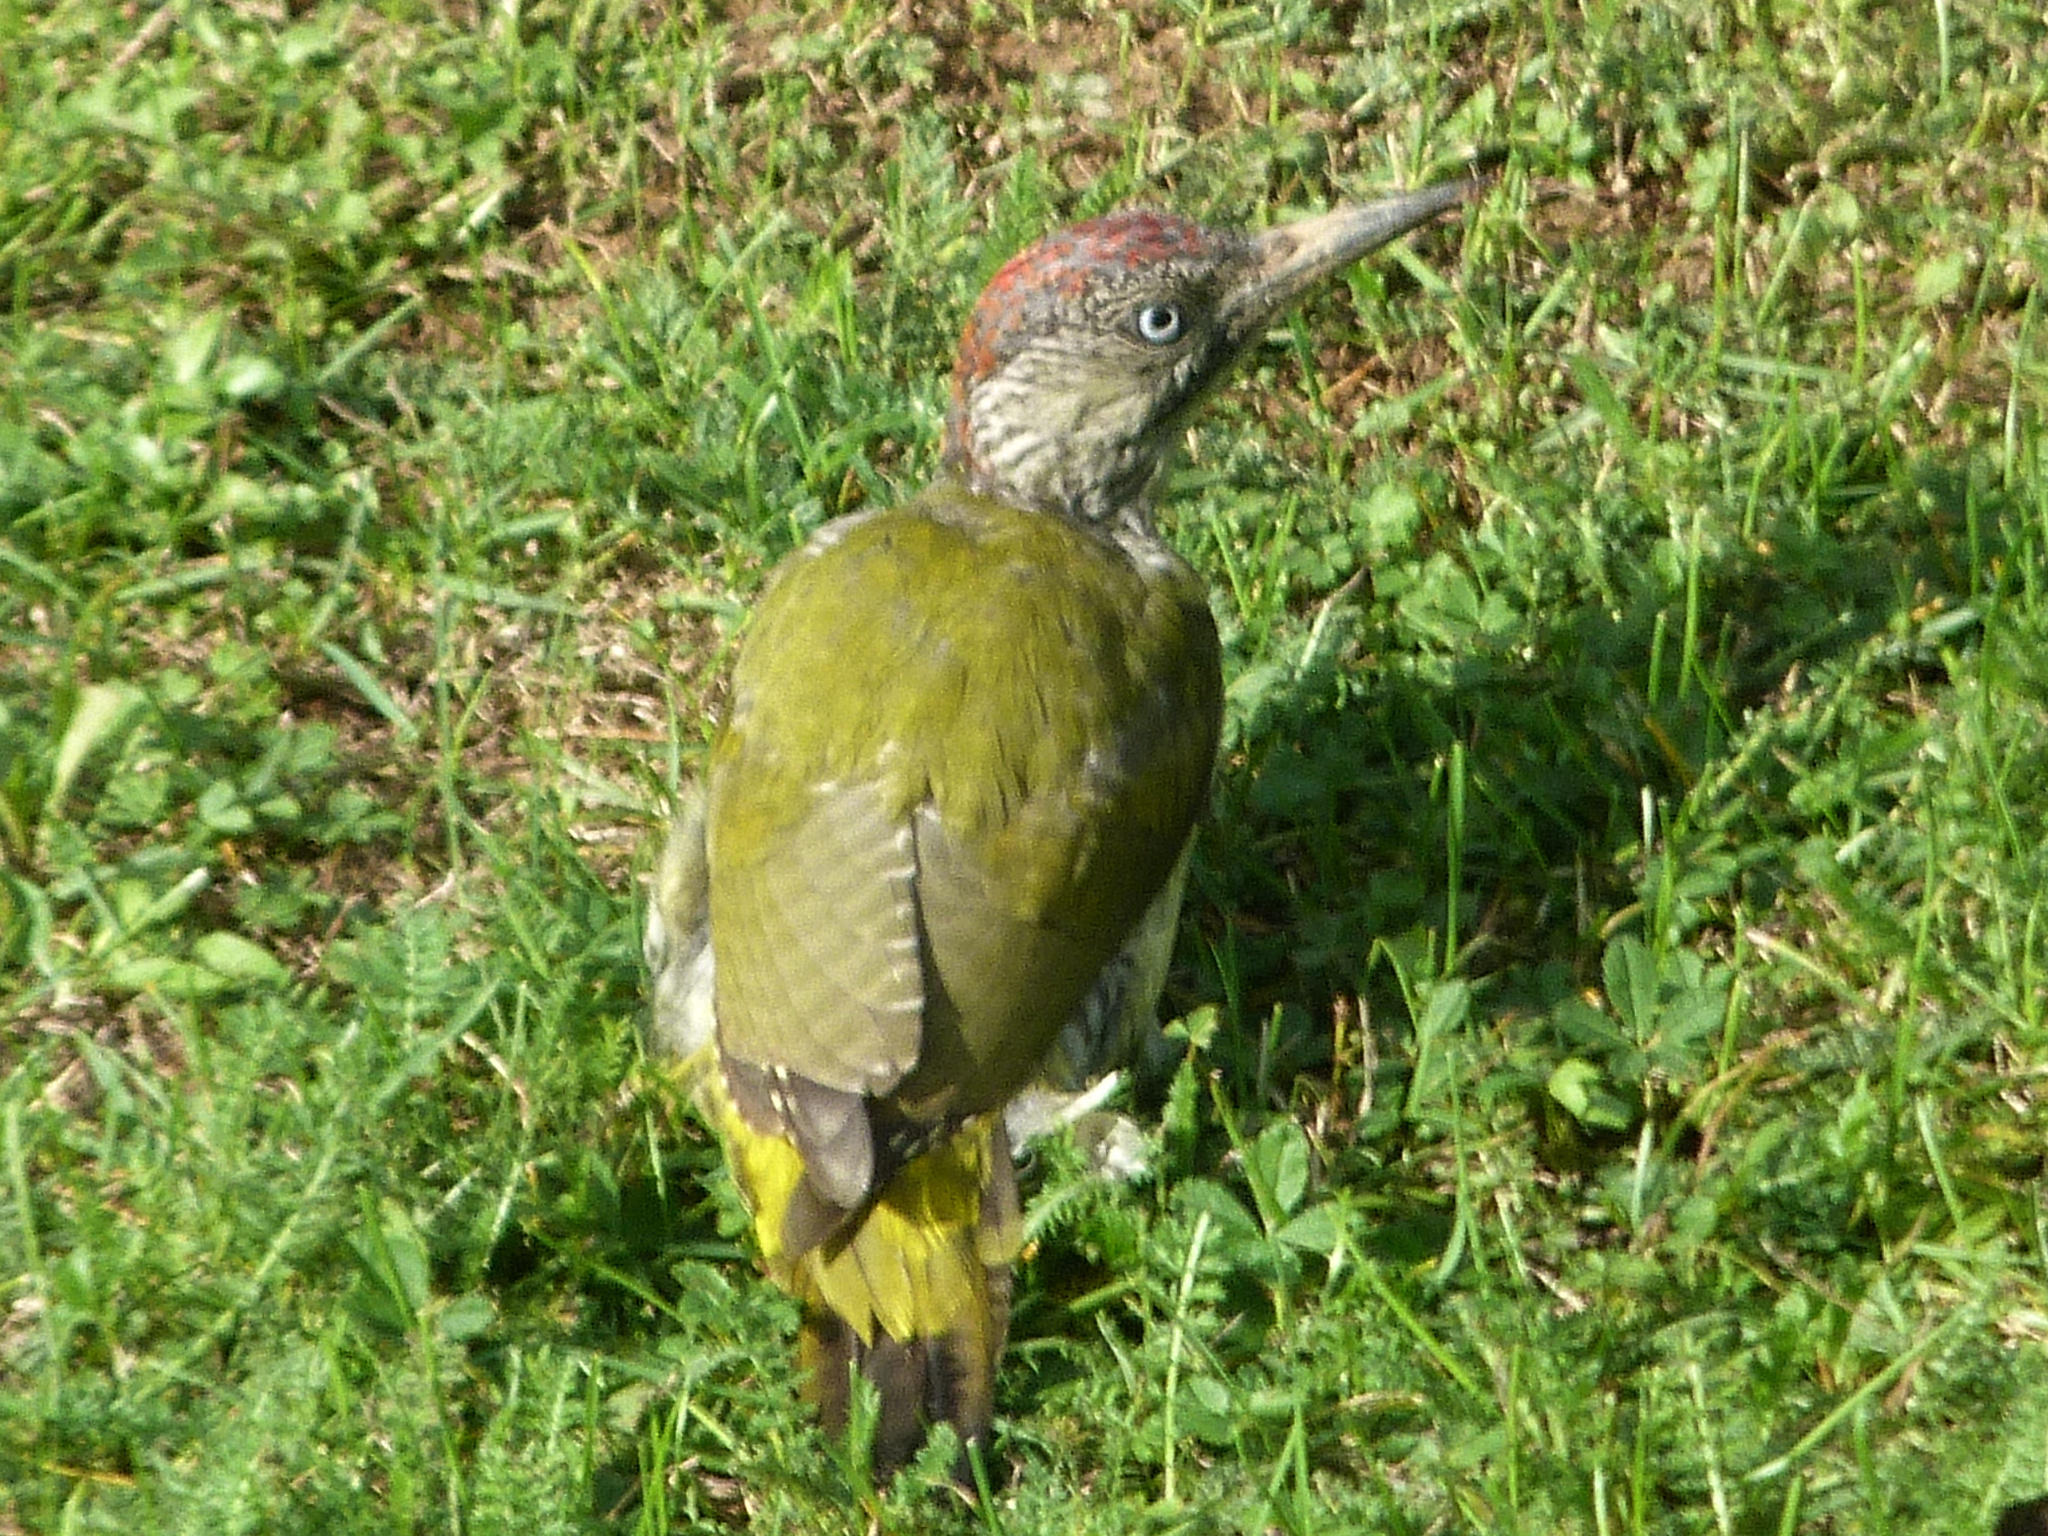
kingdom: Animalia
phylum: Chordata
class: Aves
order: Piciformes
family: Picidae
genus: Picus
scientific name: Picus viridis
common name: European green woodpecker
